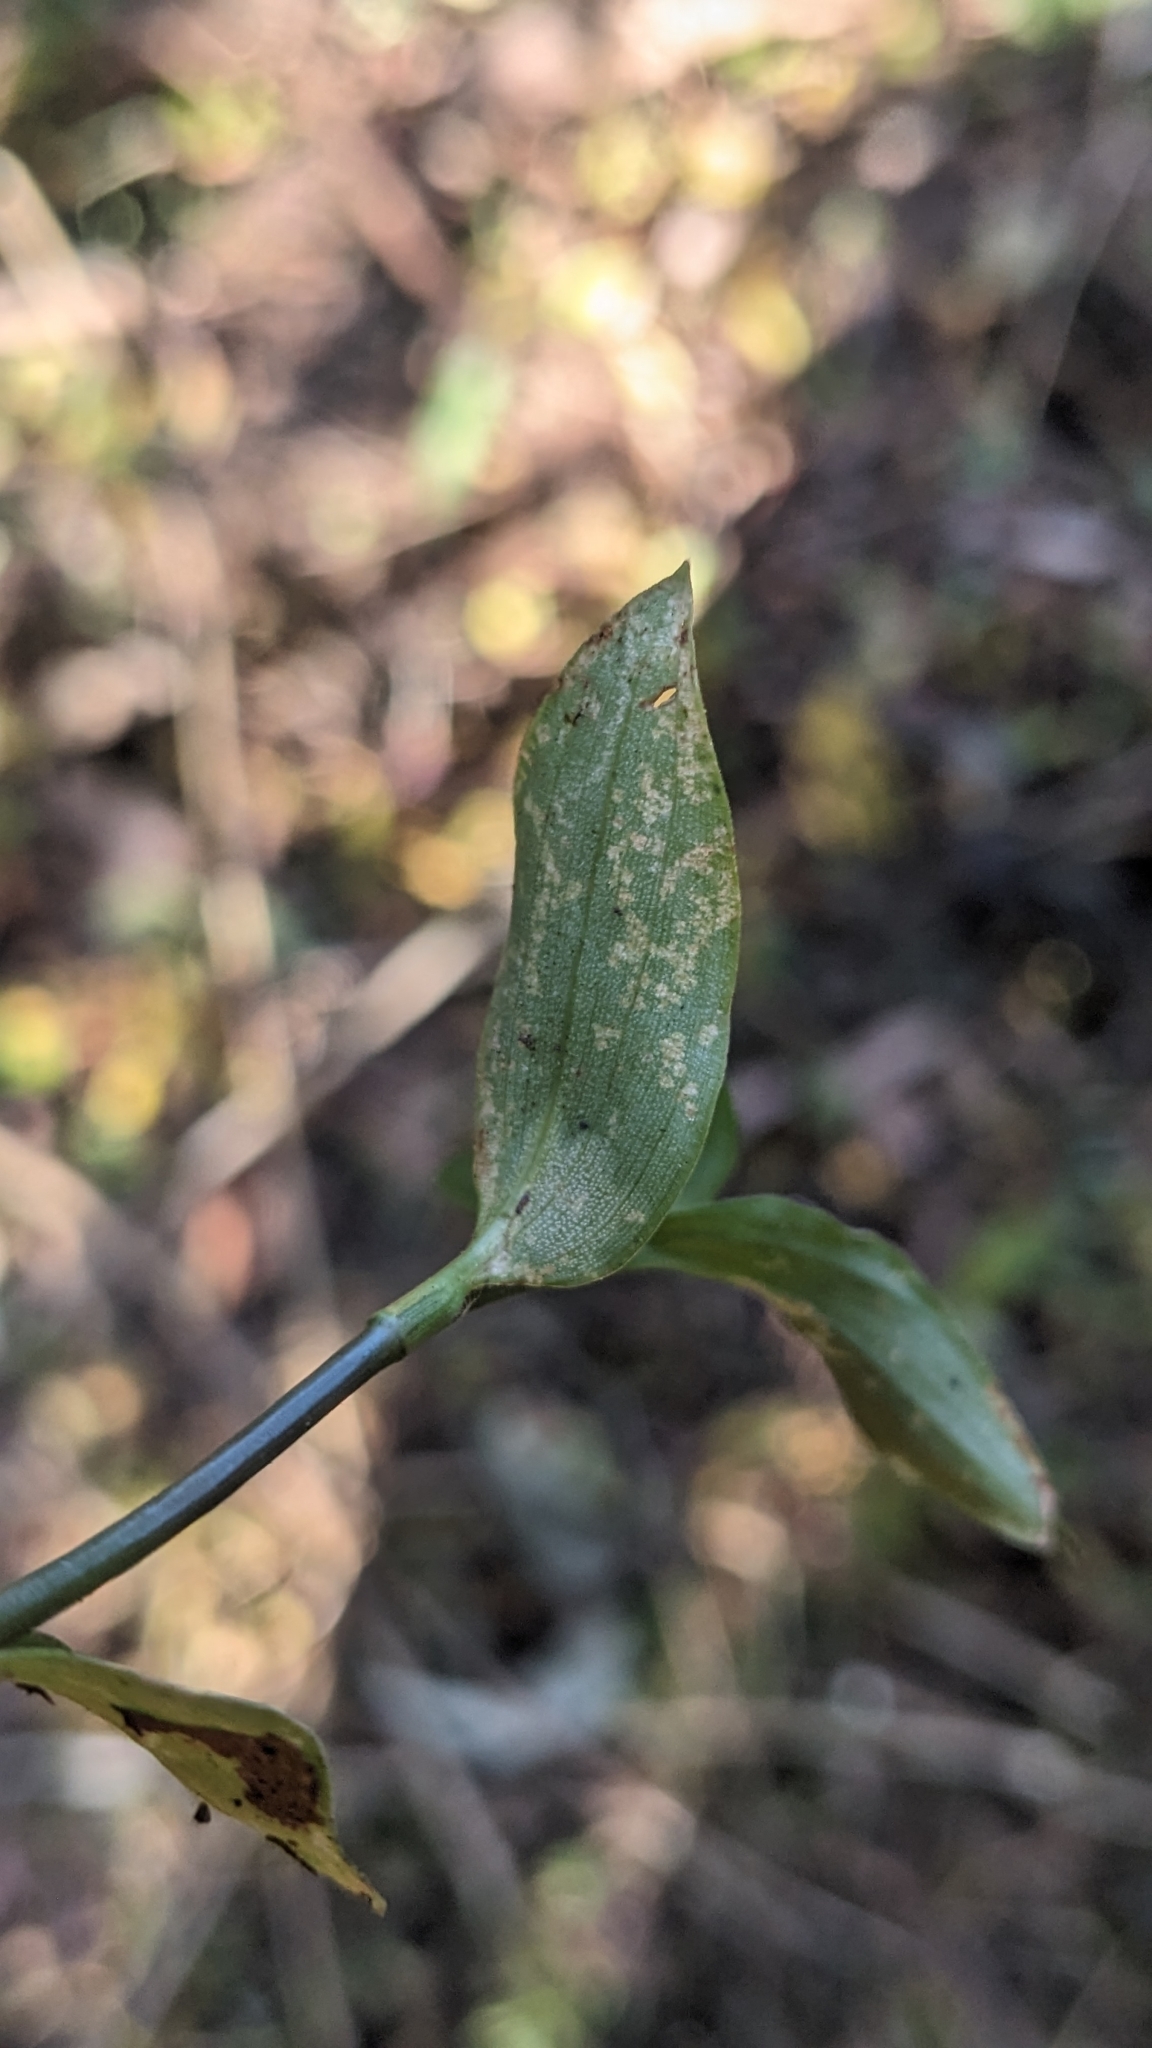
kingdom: Fungi
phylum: Basidiomycota
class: Exobasidiomycetes
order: Exobasidiales
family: Brachybasidiaceae
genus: Kordyana
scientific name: Kordyana brasiliensis
